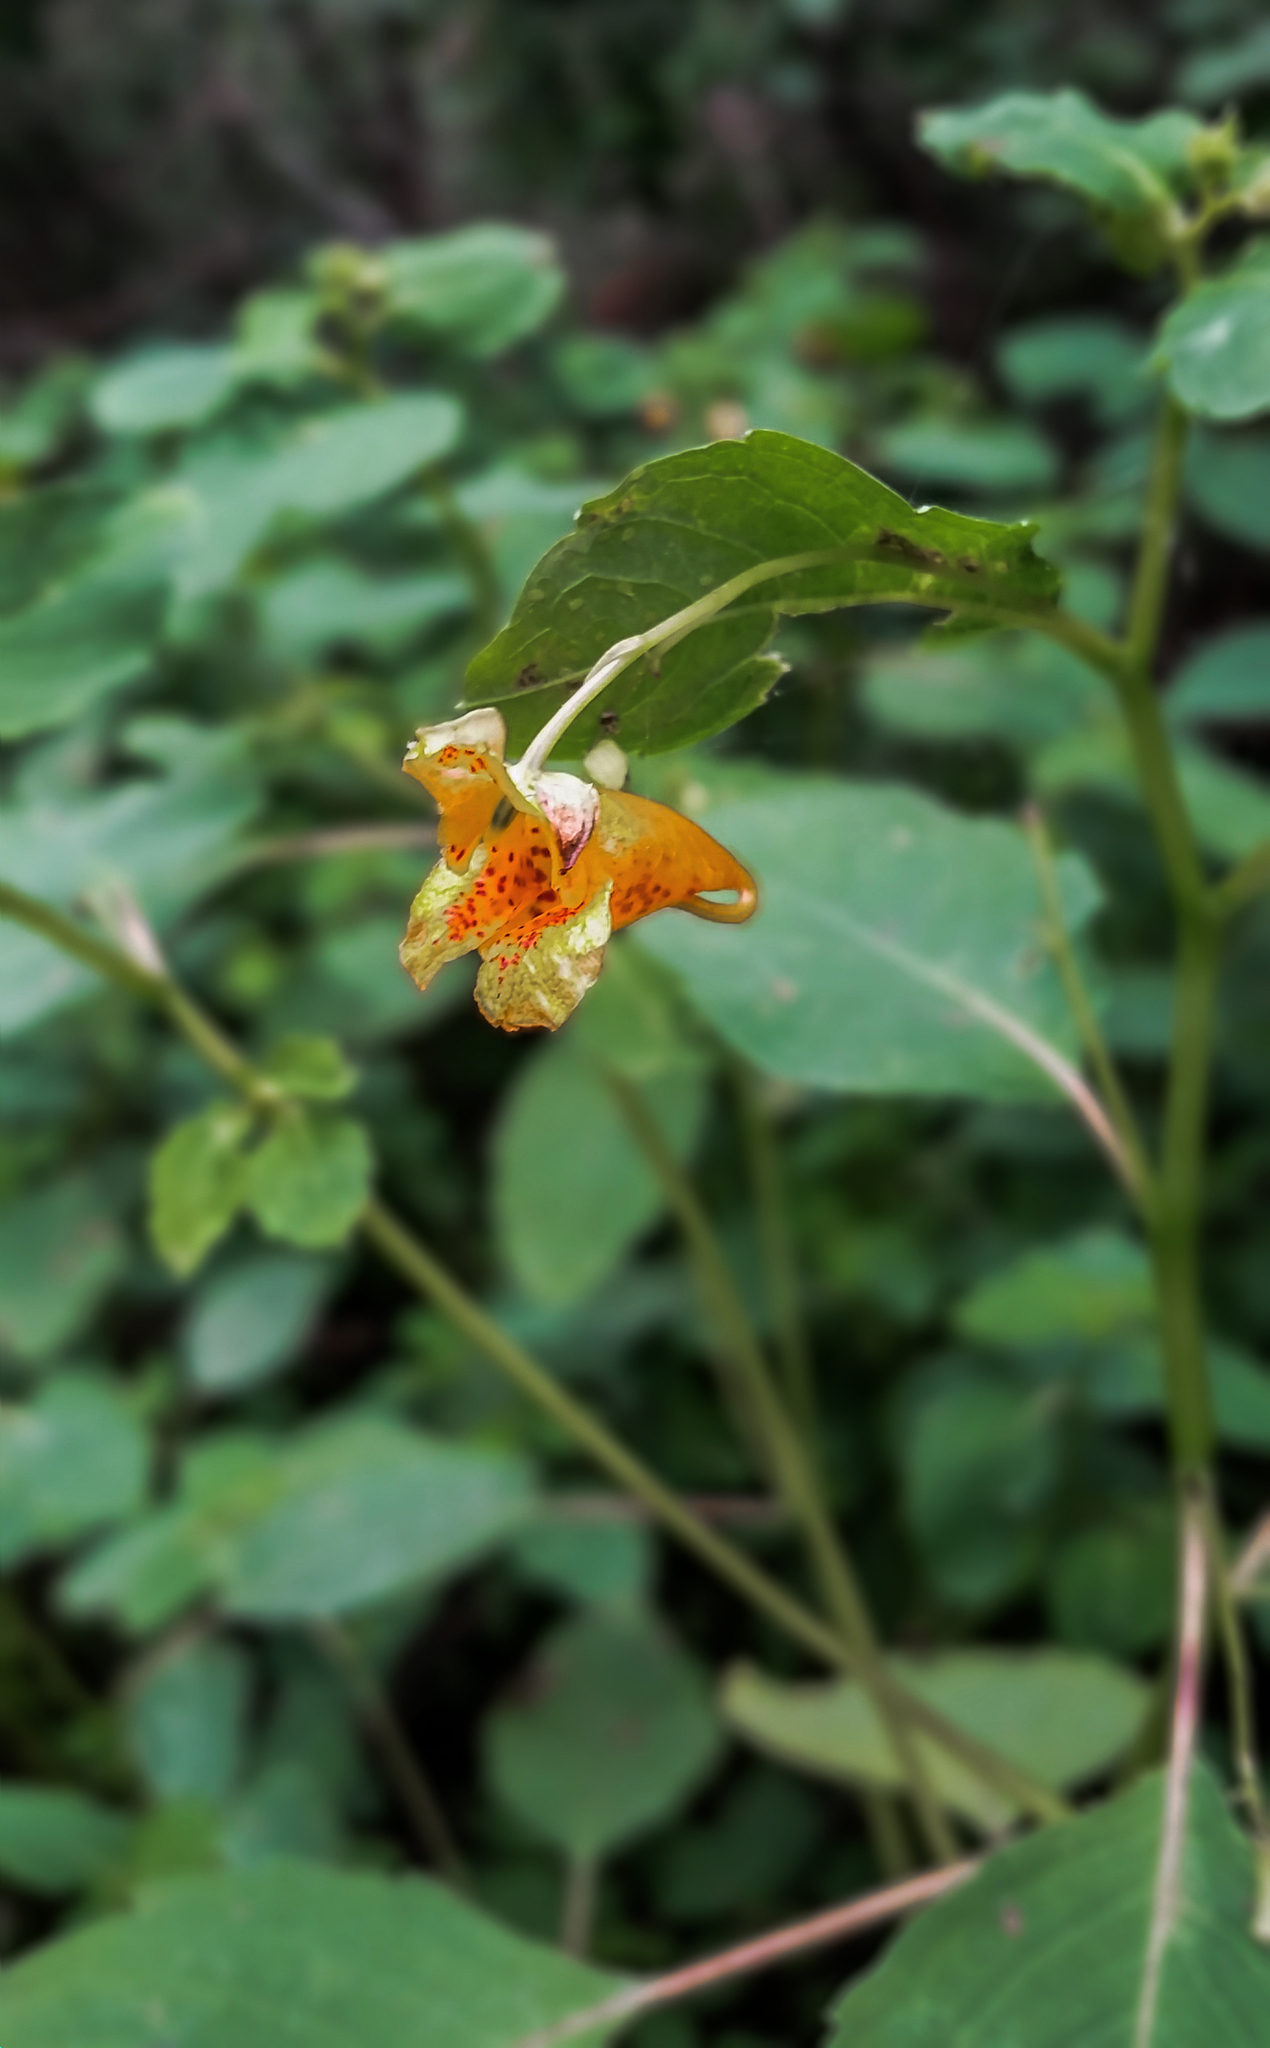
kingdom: Plantae
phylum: Tracheophyta
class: Magnoliopsida
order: Ericales
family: Balsaminaceae
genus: Impatiens
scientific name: Impatiens capensis
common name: Orange balsam
